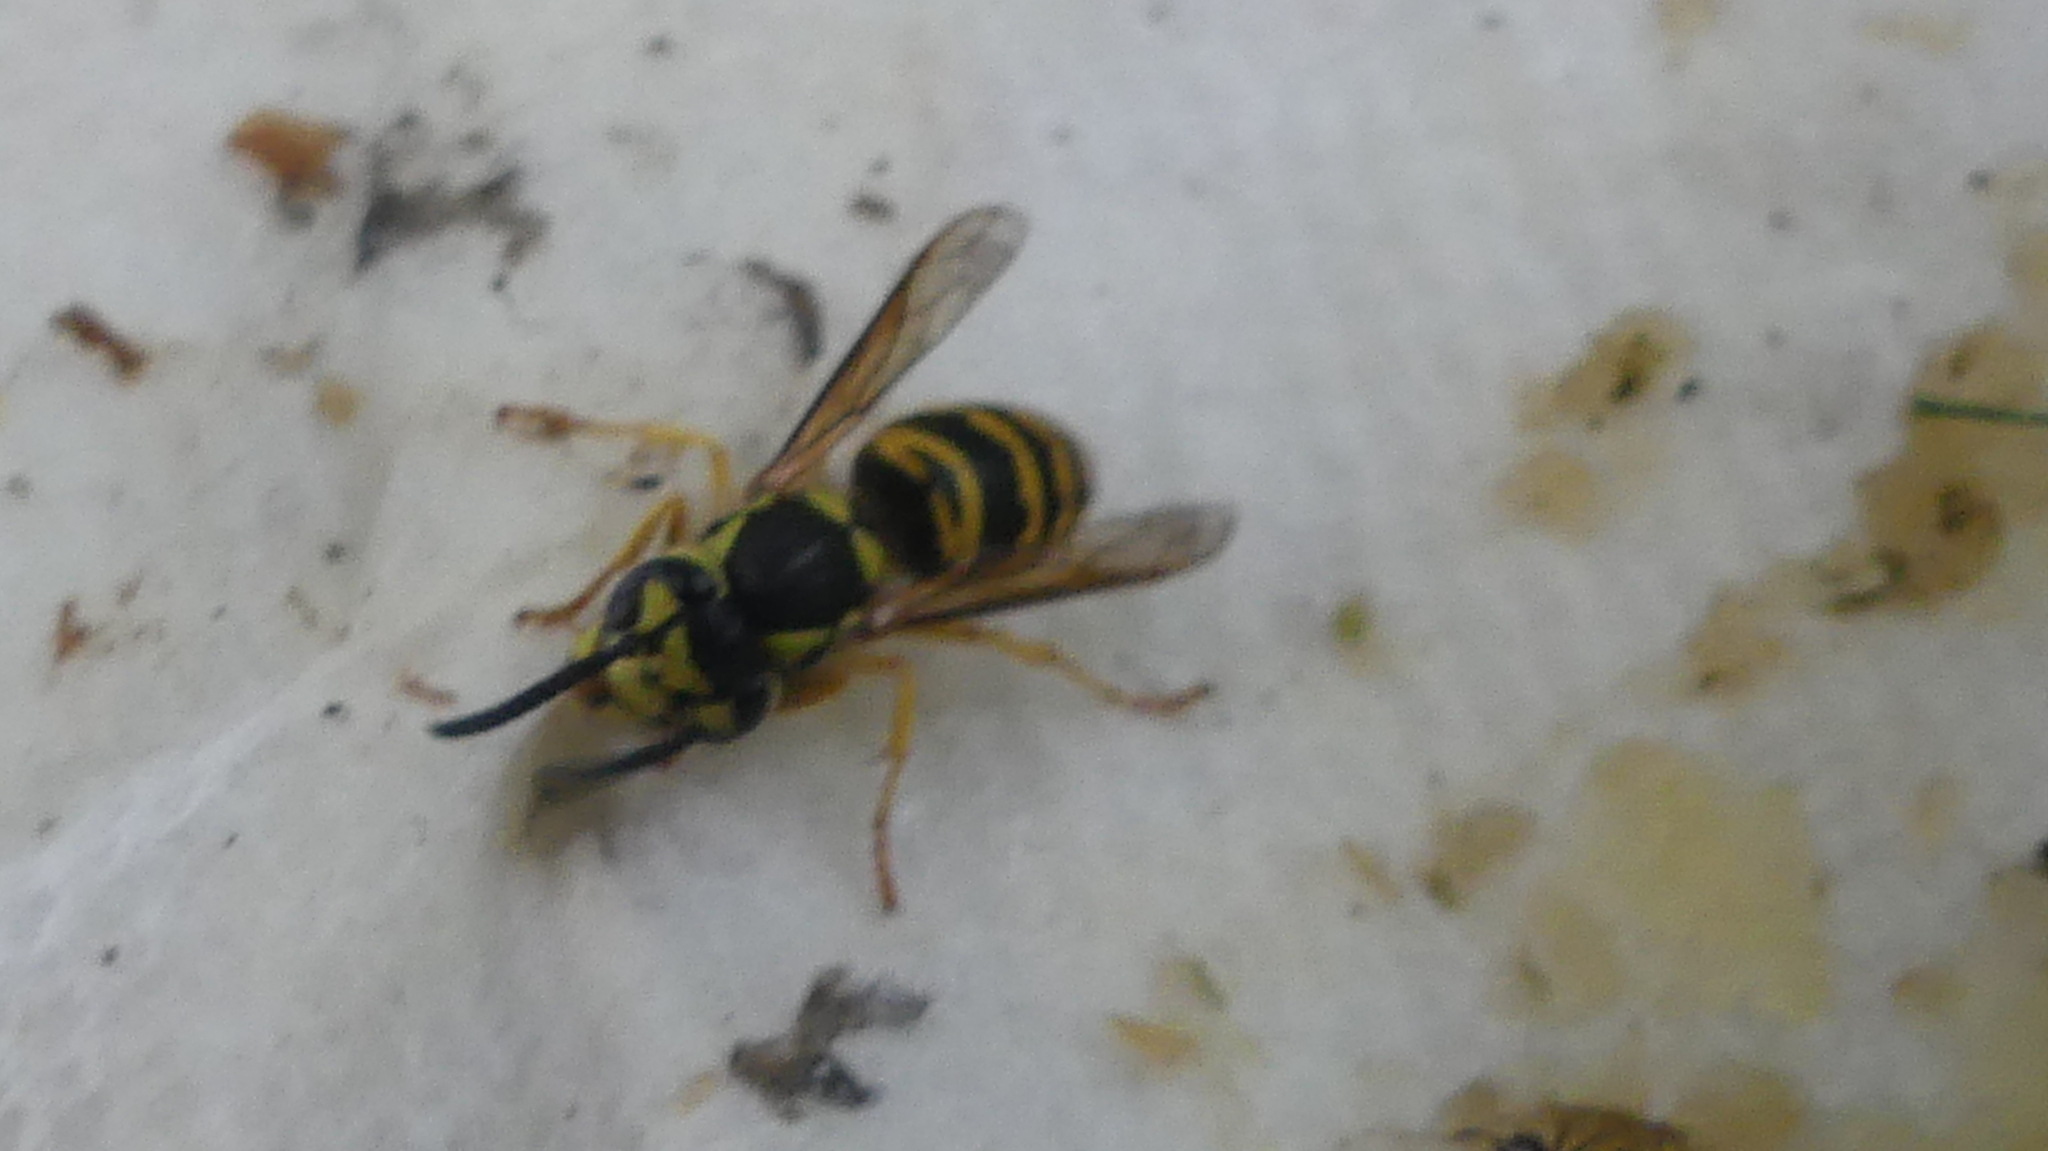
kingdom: Animalia
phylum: Arthropoda
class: Insecta
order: Hymenoptera
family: Vespidae
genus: Vespula
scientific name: Vespula maculifrons
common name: Eastern yellowjacket
